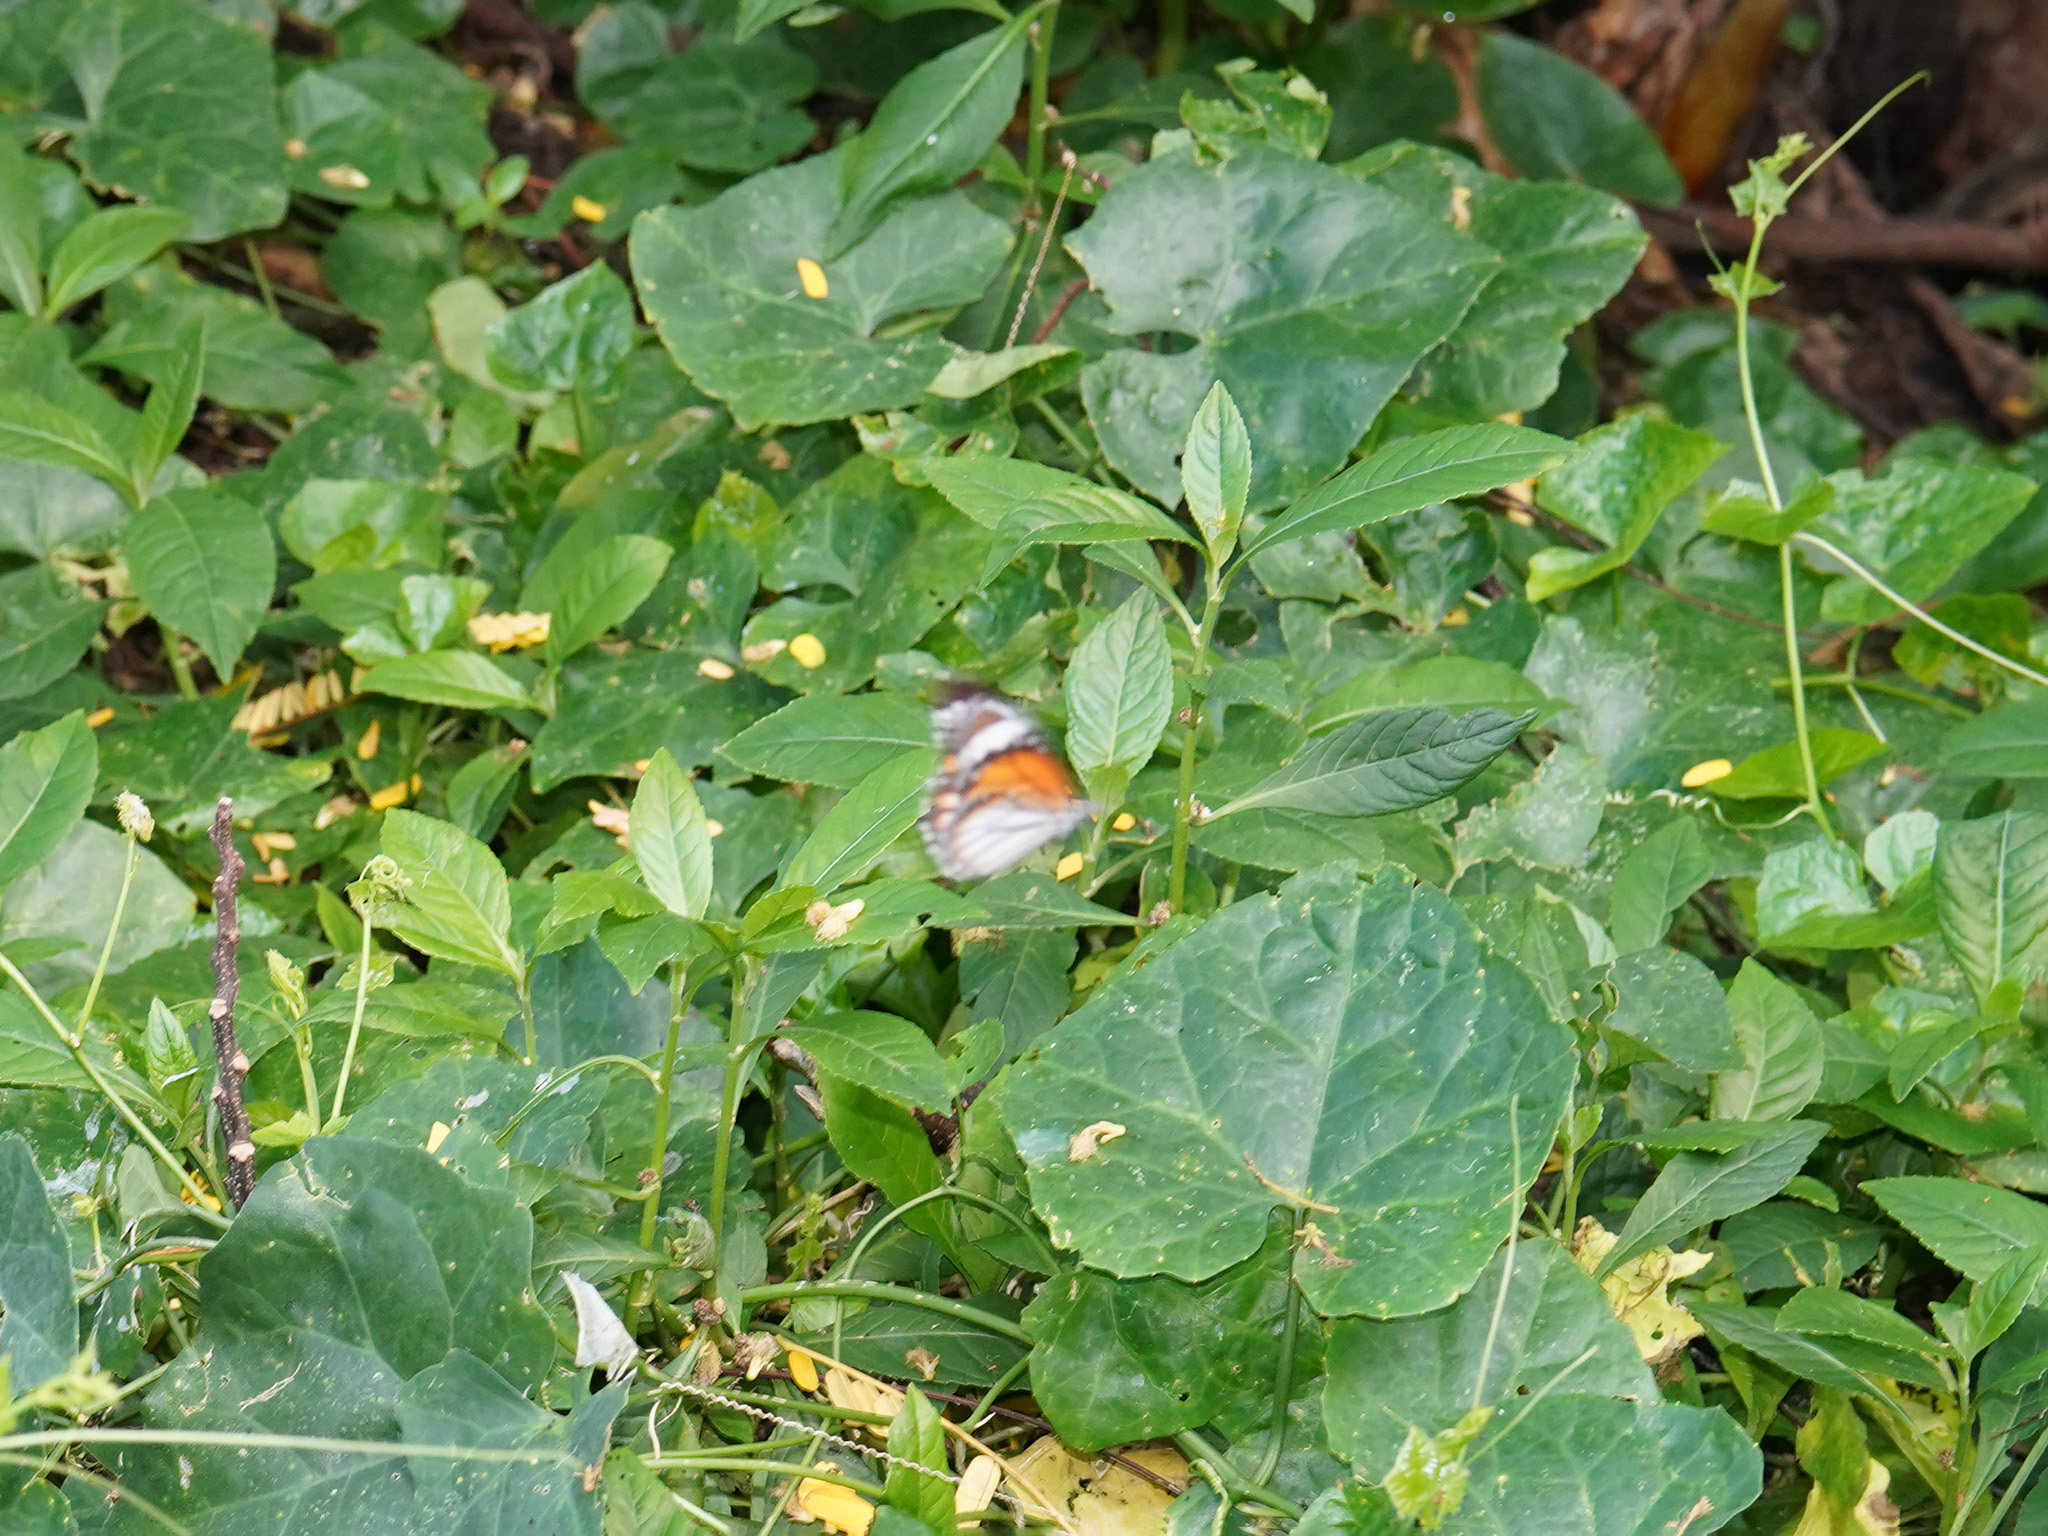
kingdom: Animalia
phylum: Arthropoda
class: Insecta
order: Lepidoptera
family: Nymphalidae
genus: Danaus
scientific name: Danaus genutia
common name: Common tiger butterfly
